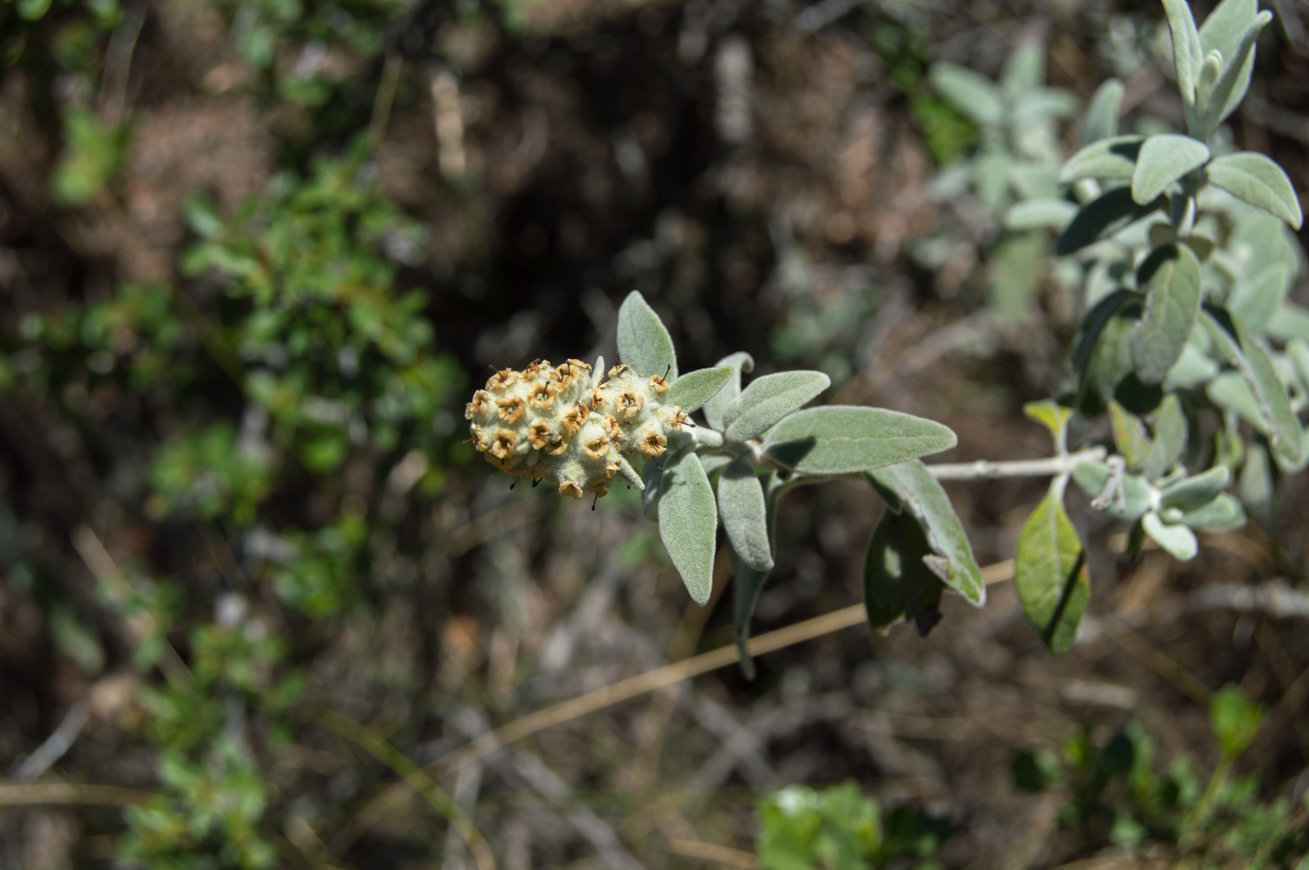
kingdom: Plantae
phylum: Tracheophyta
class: Magnoliopsida
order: Lamiales
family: Scrophulariaceae
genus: Buddleja
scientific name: Buddleja cordobensis
